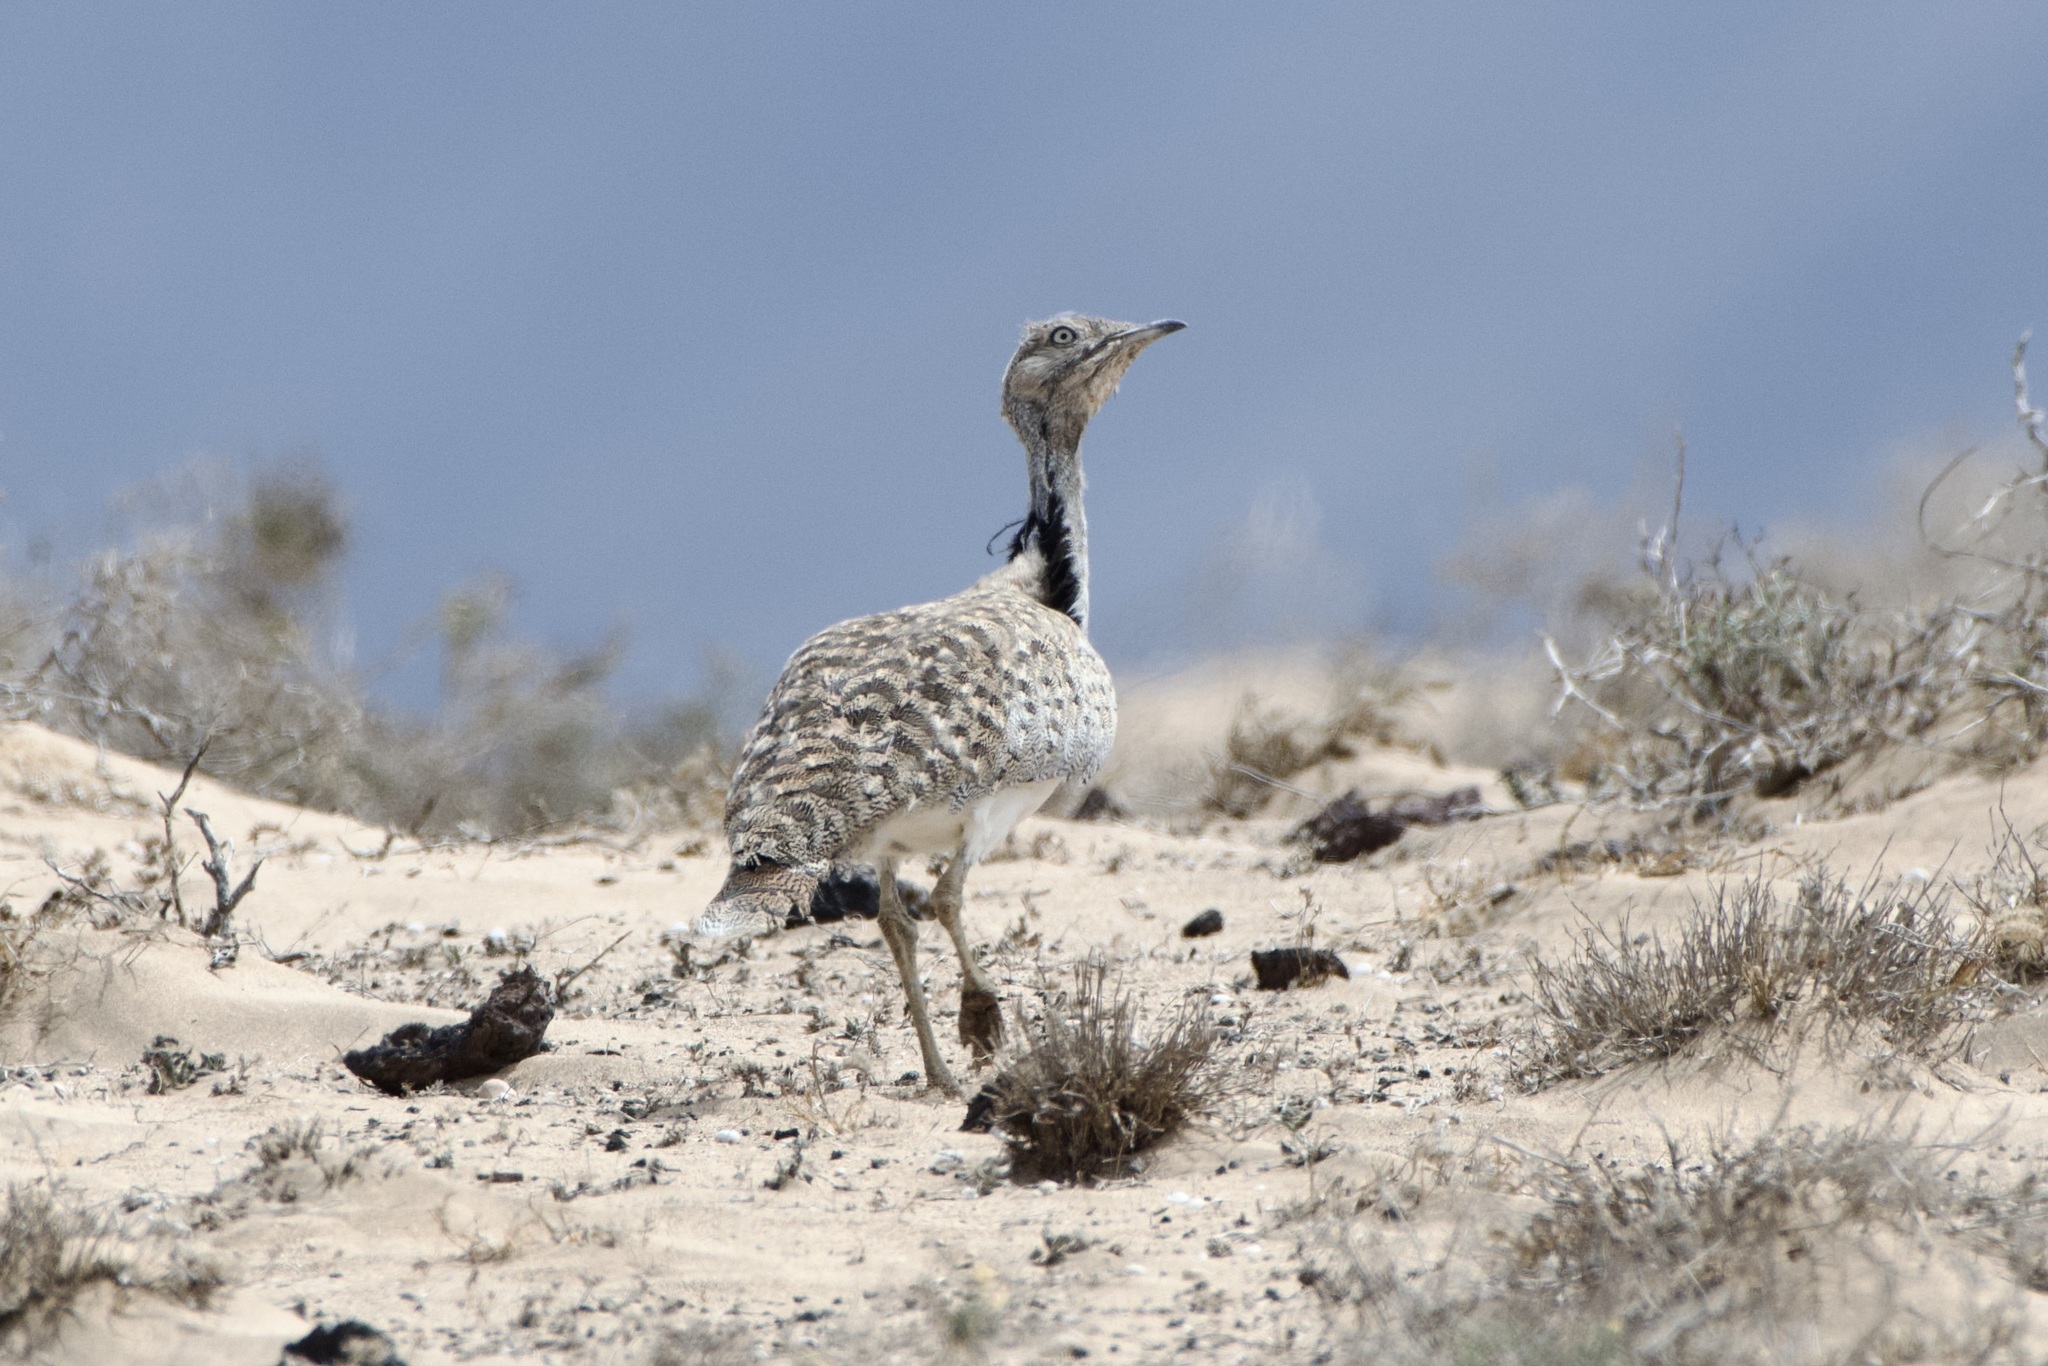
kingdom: Animalia
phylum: Chordata
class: Aves
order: Otidiformes
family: Otididae
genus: Chlamydotis
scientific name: Chlamydotis undulata
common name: Houbara bustard
